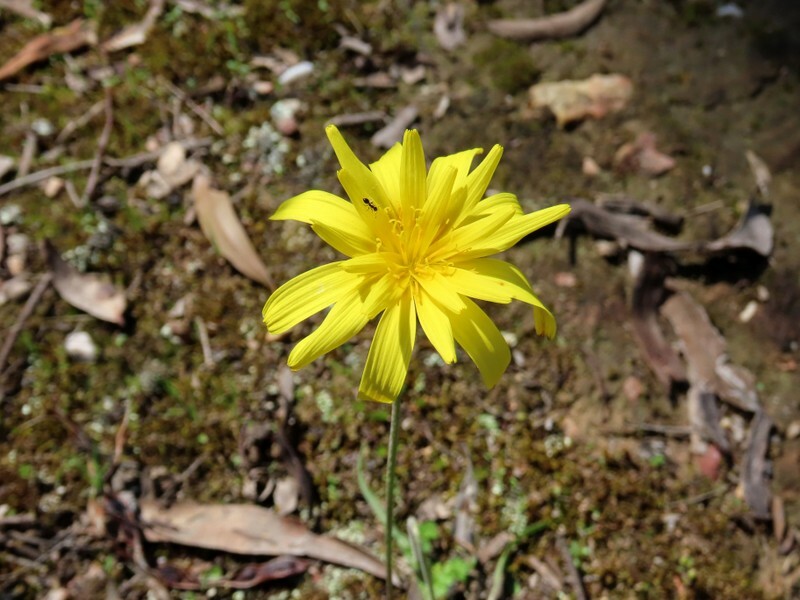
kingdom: Plantae
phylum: Tracheophyta
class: Magnoliopsida
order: Asterales
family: Asteraceae
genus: Microseris
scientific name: Microseris lanceolata
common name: Yam daisy
